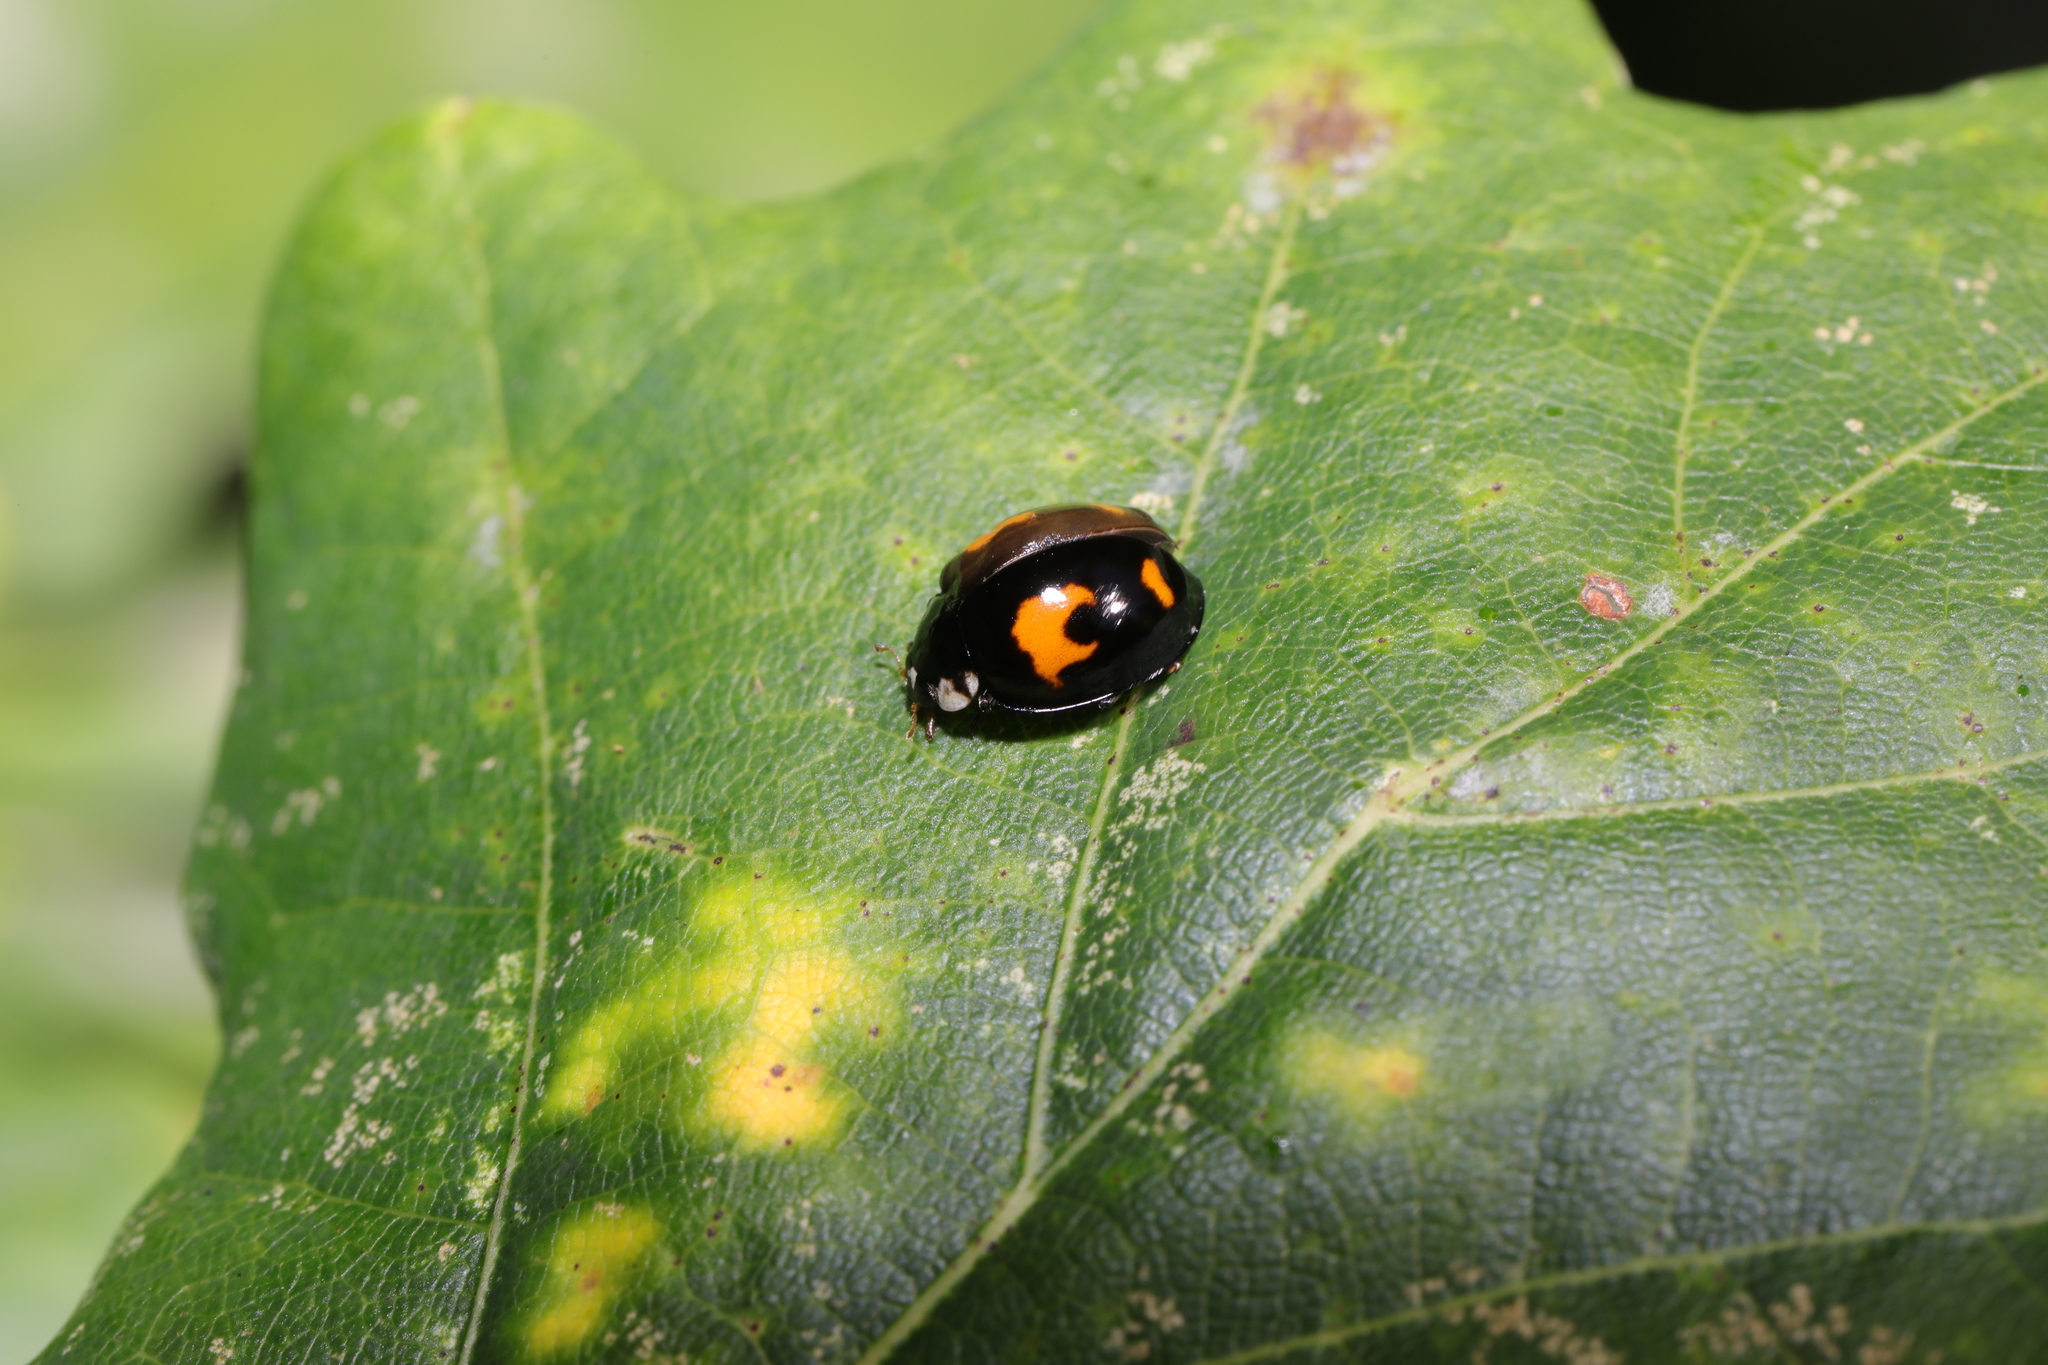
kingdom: Animalia
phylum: Arthropoda
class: Insecta
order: Coleoptera
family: Coccinellidae
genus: Harmonia
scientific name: Harmonia axyridis
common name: Harlequin ladybird
